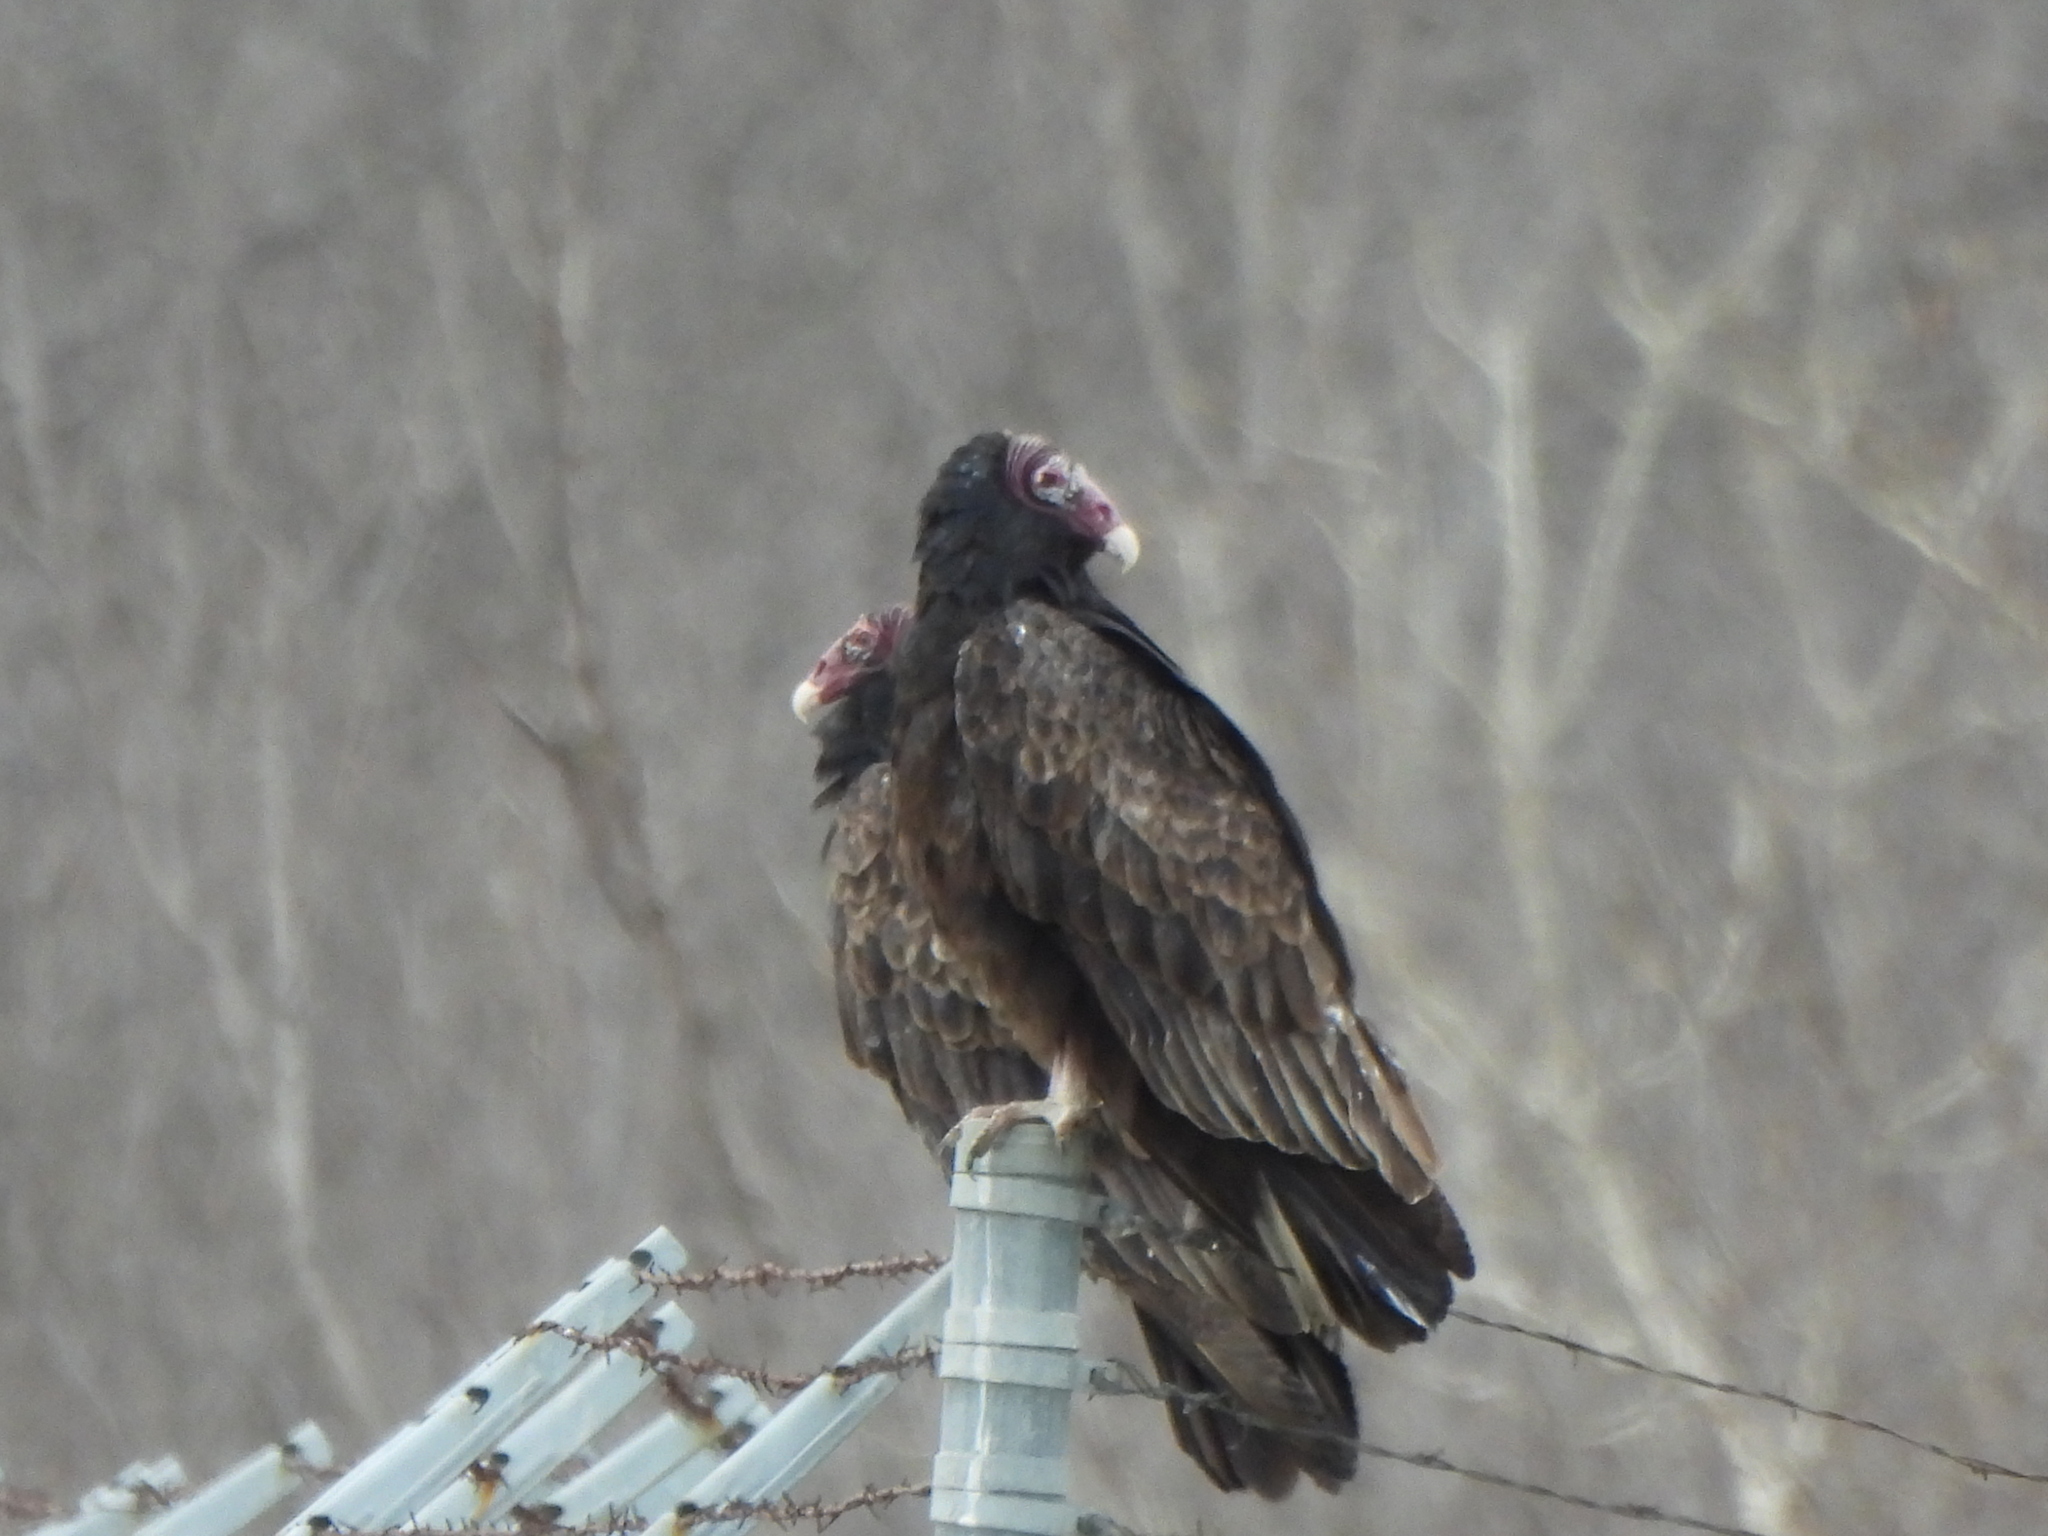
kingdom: Animalia
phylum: Chordata
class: Aves
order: Accipitriformes
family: Cathartidae
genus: Cathartes
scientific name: Cathartes aura
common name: Turkey vulture
